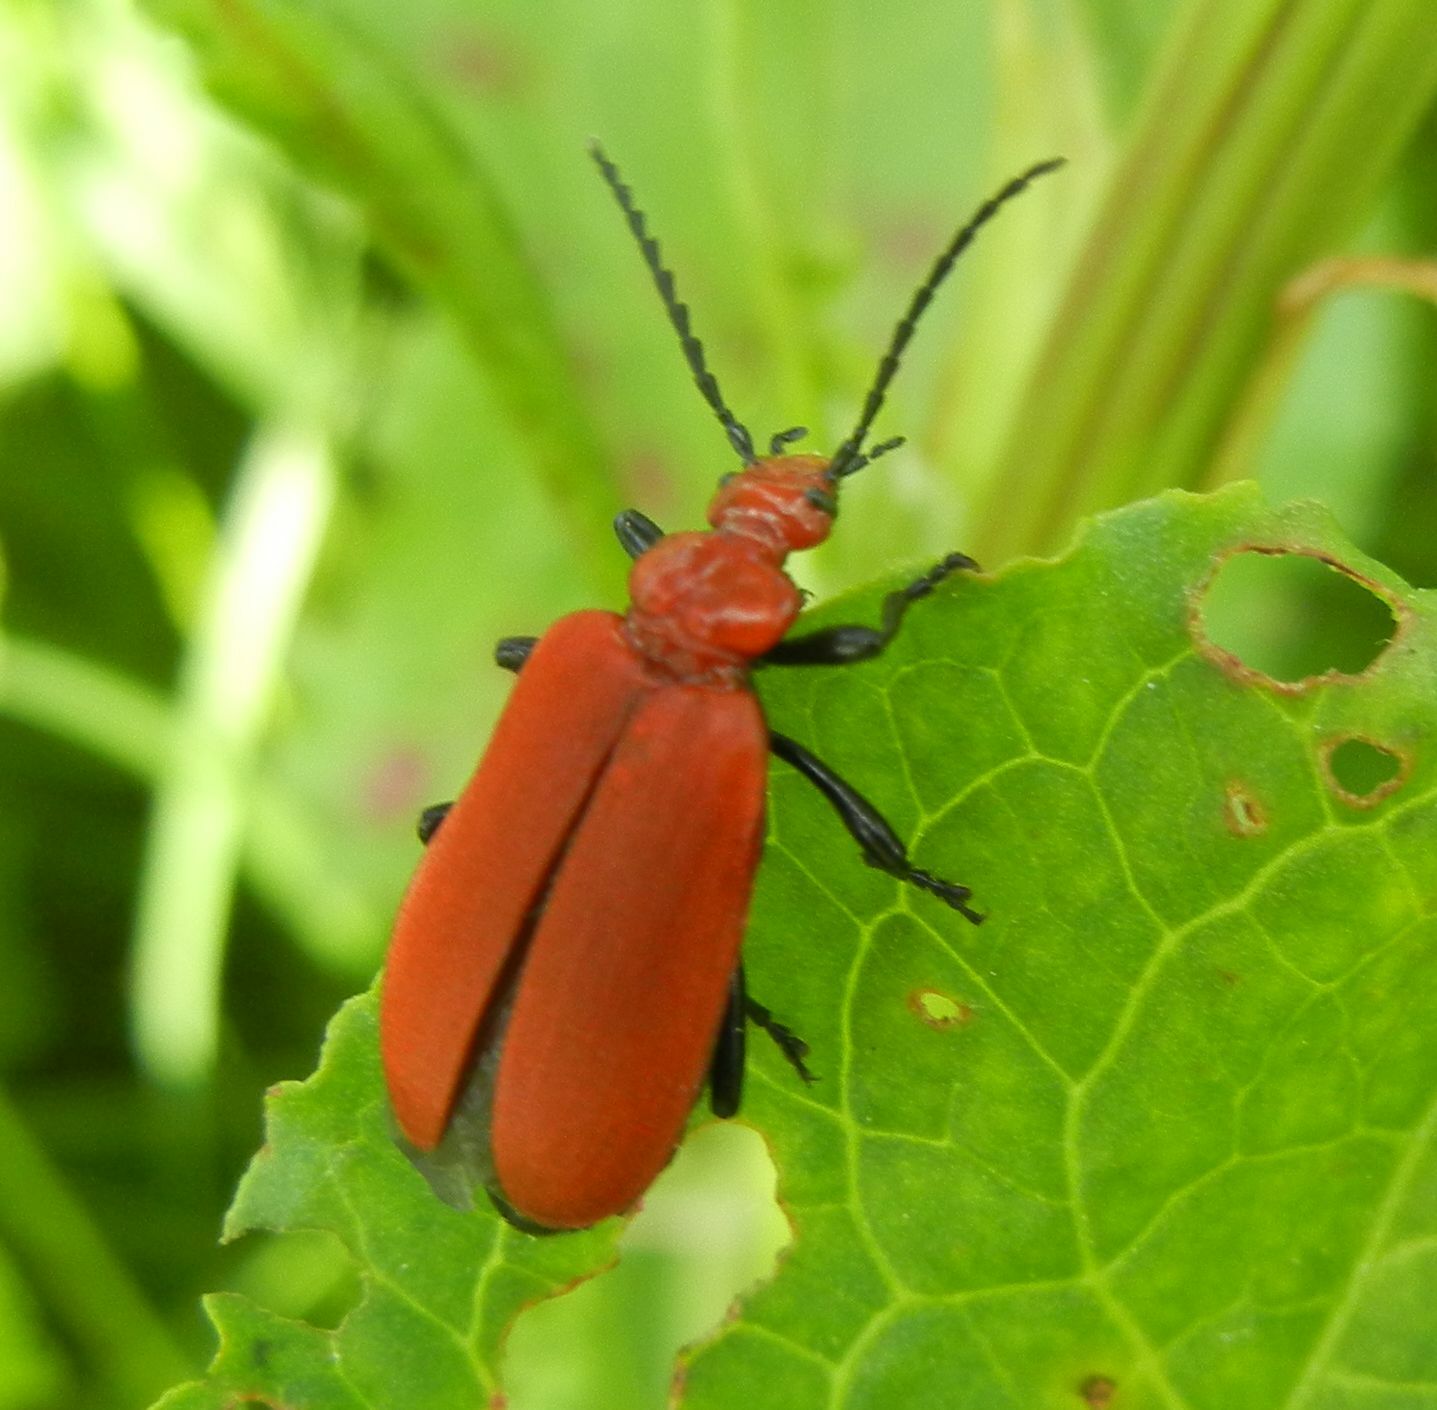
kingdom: Animalia
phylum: Arthropoda
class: Insecta
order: Coleoptera
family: Pyrochroidae
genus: Pyrochroa
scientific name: Pyrochroa serraticornis
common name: Red-headed cardinal beetle
